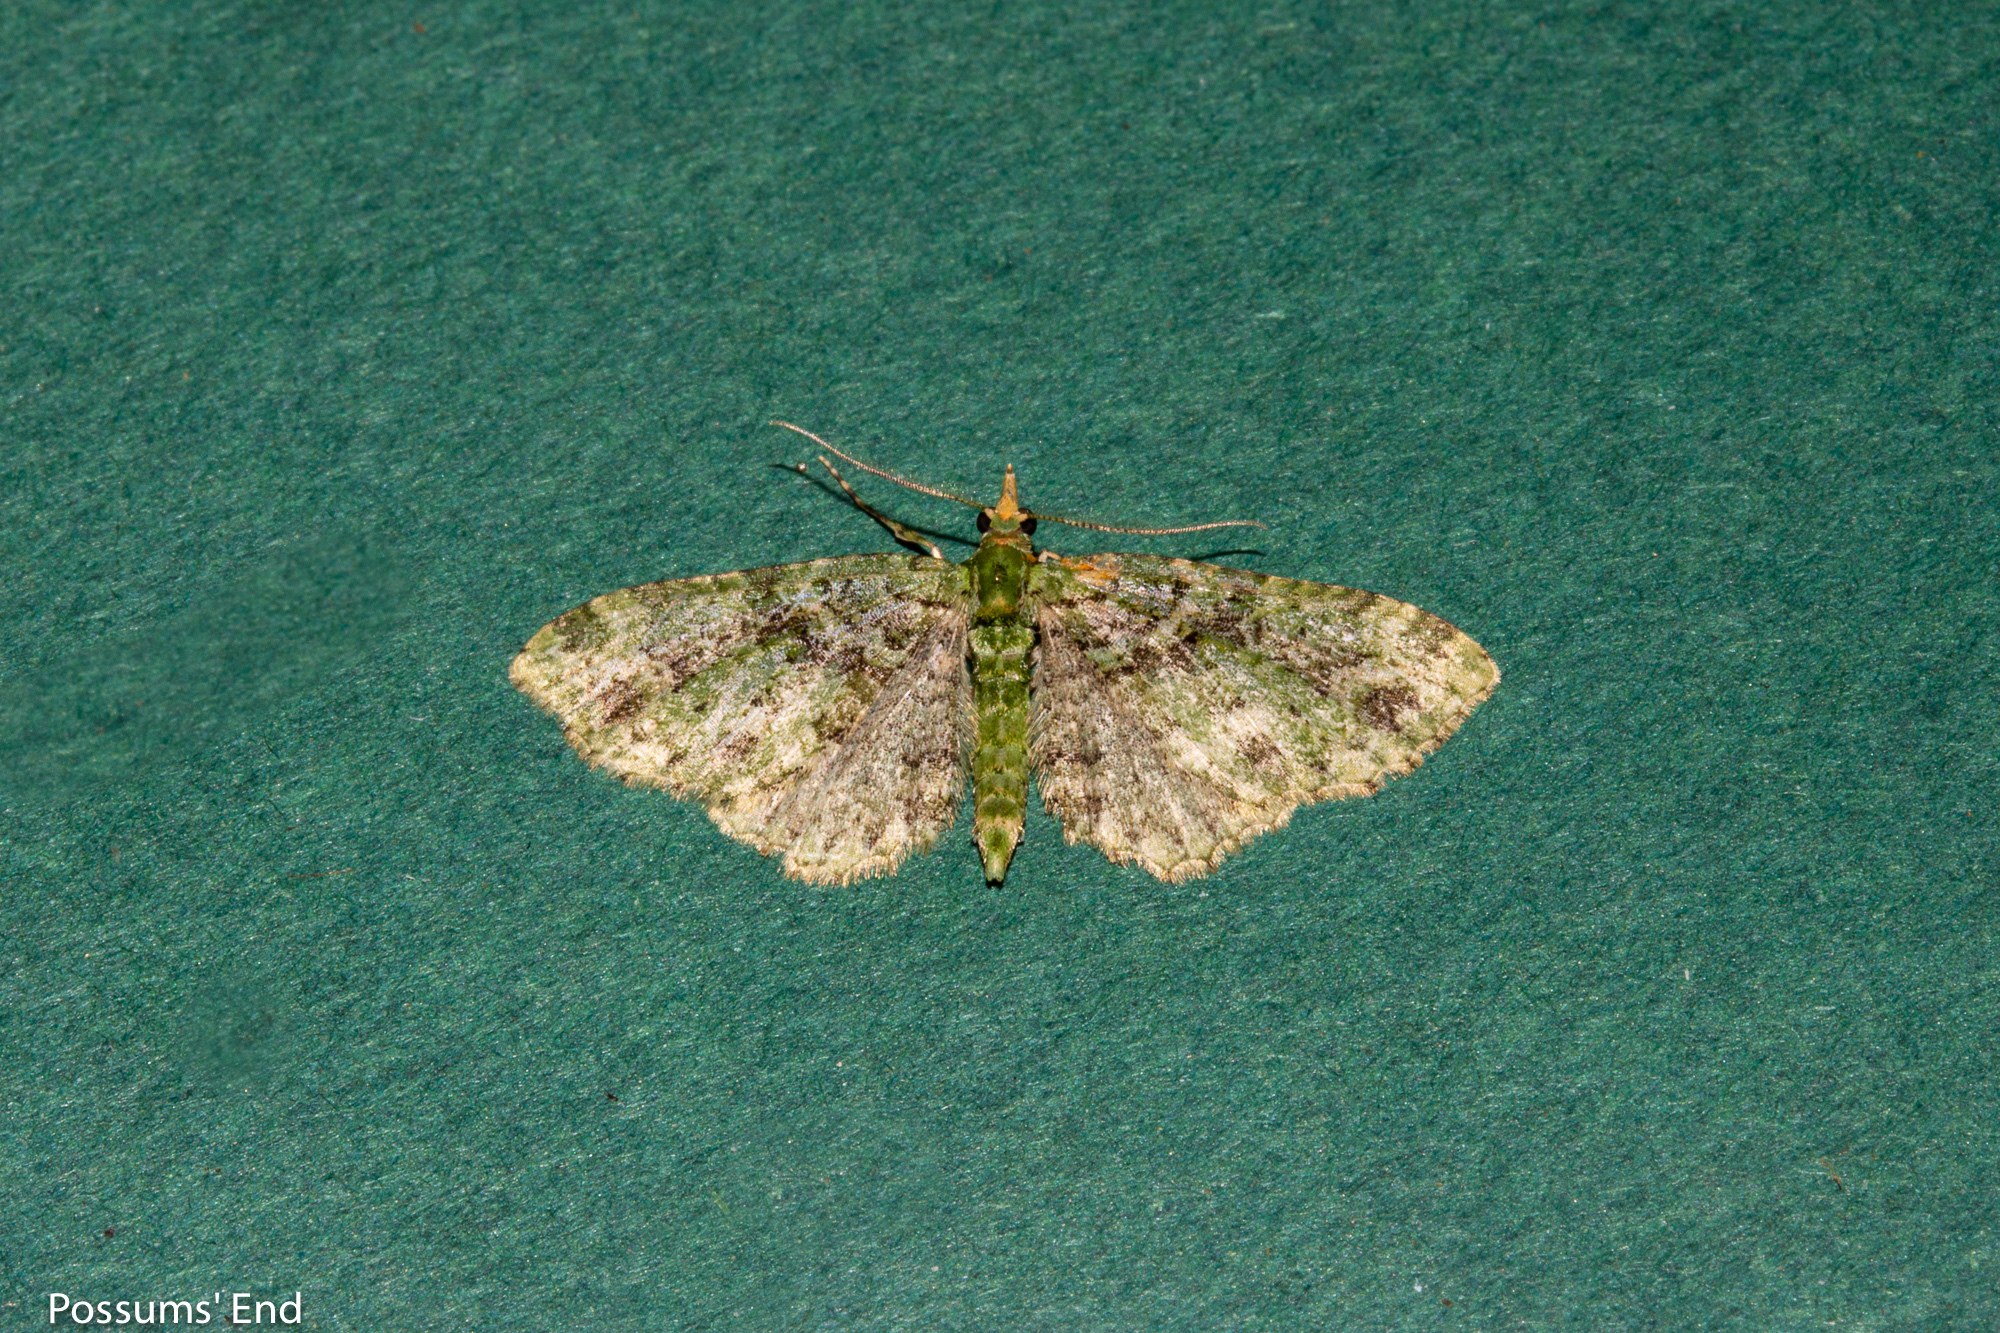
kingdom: Animalia
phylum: Arthropoda
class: Insecta
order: Lepidoptera
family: Geometridae
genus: Pasiphila
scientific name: Pasiphila muscosata
